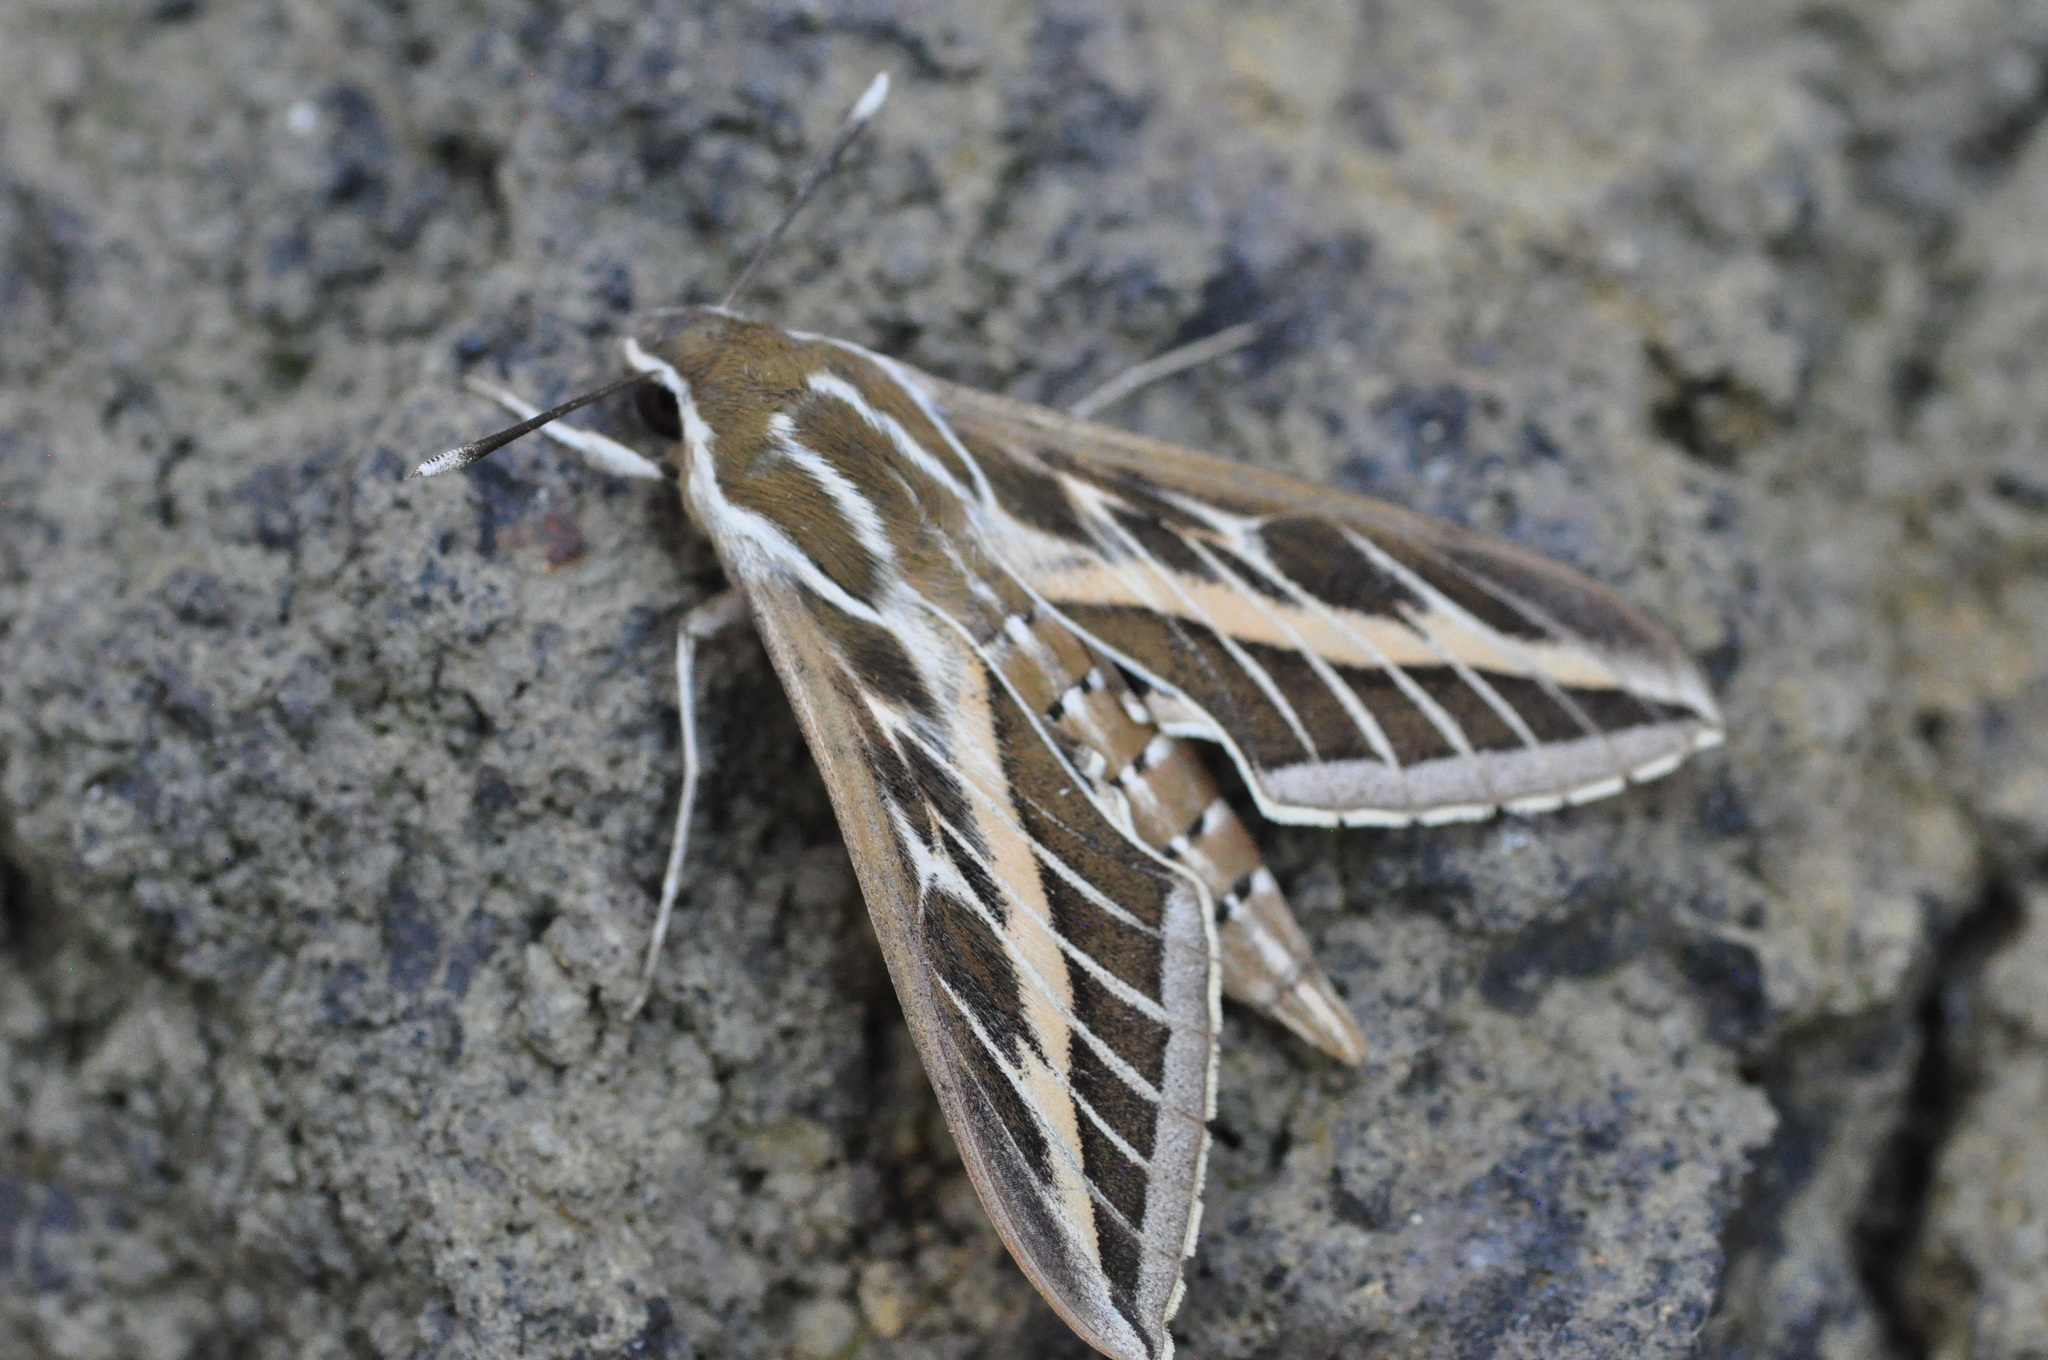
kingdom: Animalia
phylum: Arthropoda
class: Insecta
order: Lepidoptera
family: Sphingidae
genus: Hyles
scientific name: Hyles livornica
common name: Striped hawk-moth
